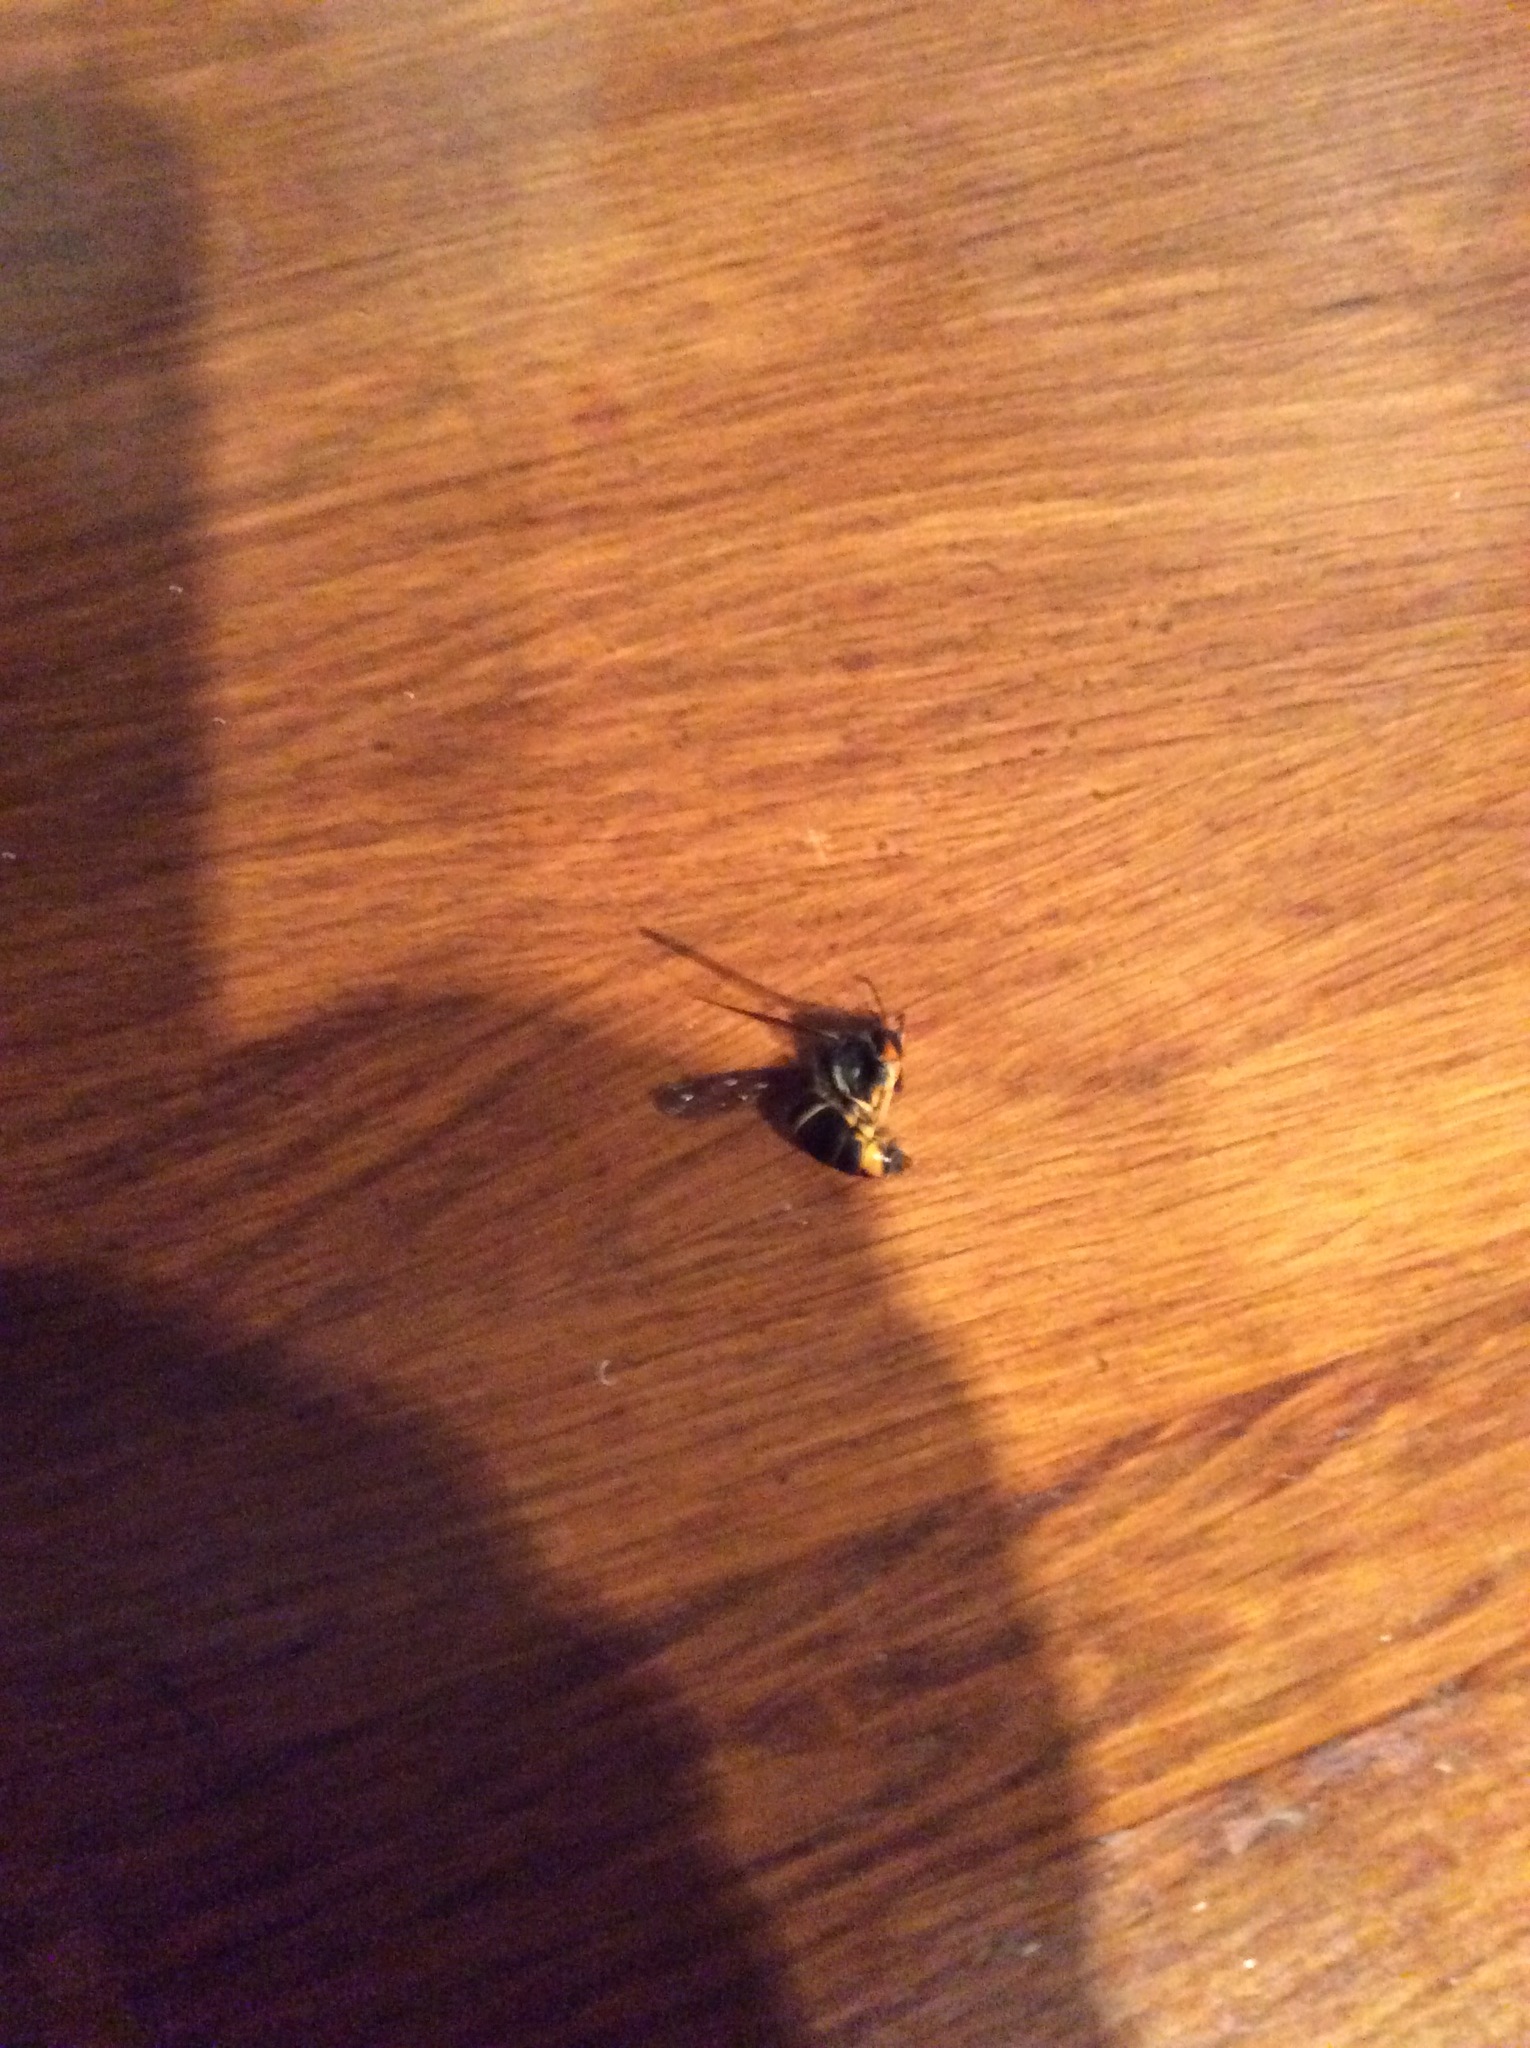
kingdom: Animalia
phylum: Arthropoda
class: Insecta
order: Hymenoptera
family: Vespidae
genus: Vespa
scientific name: Vespa velutina
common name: Asian hornet
